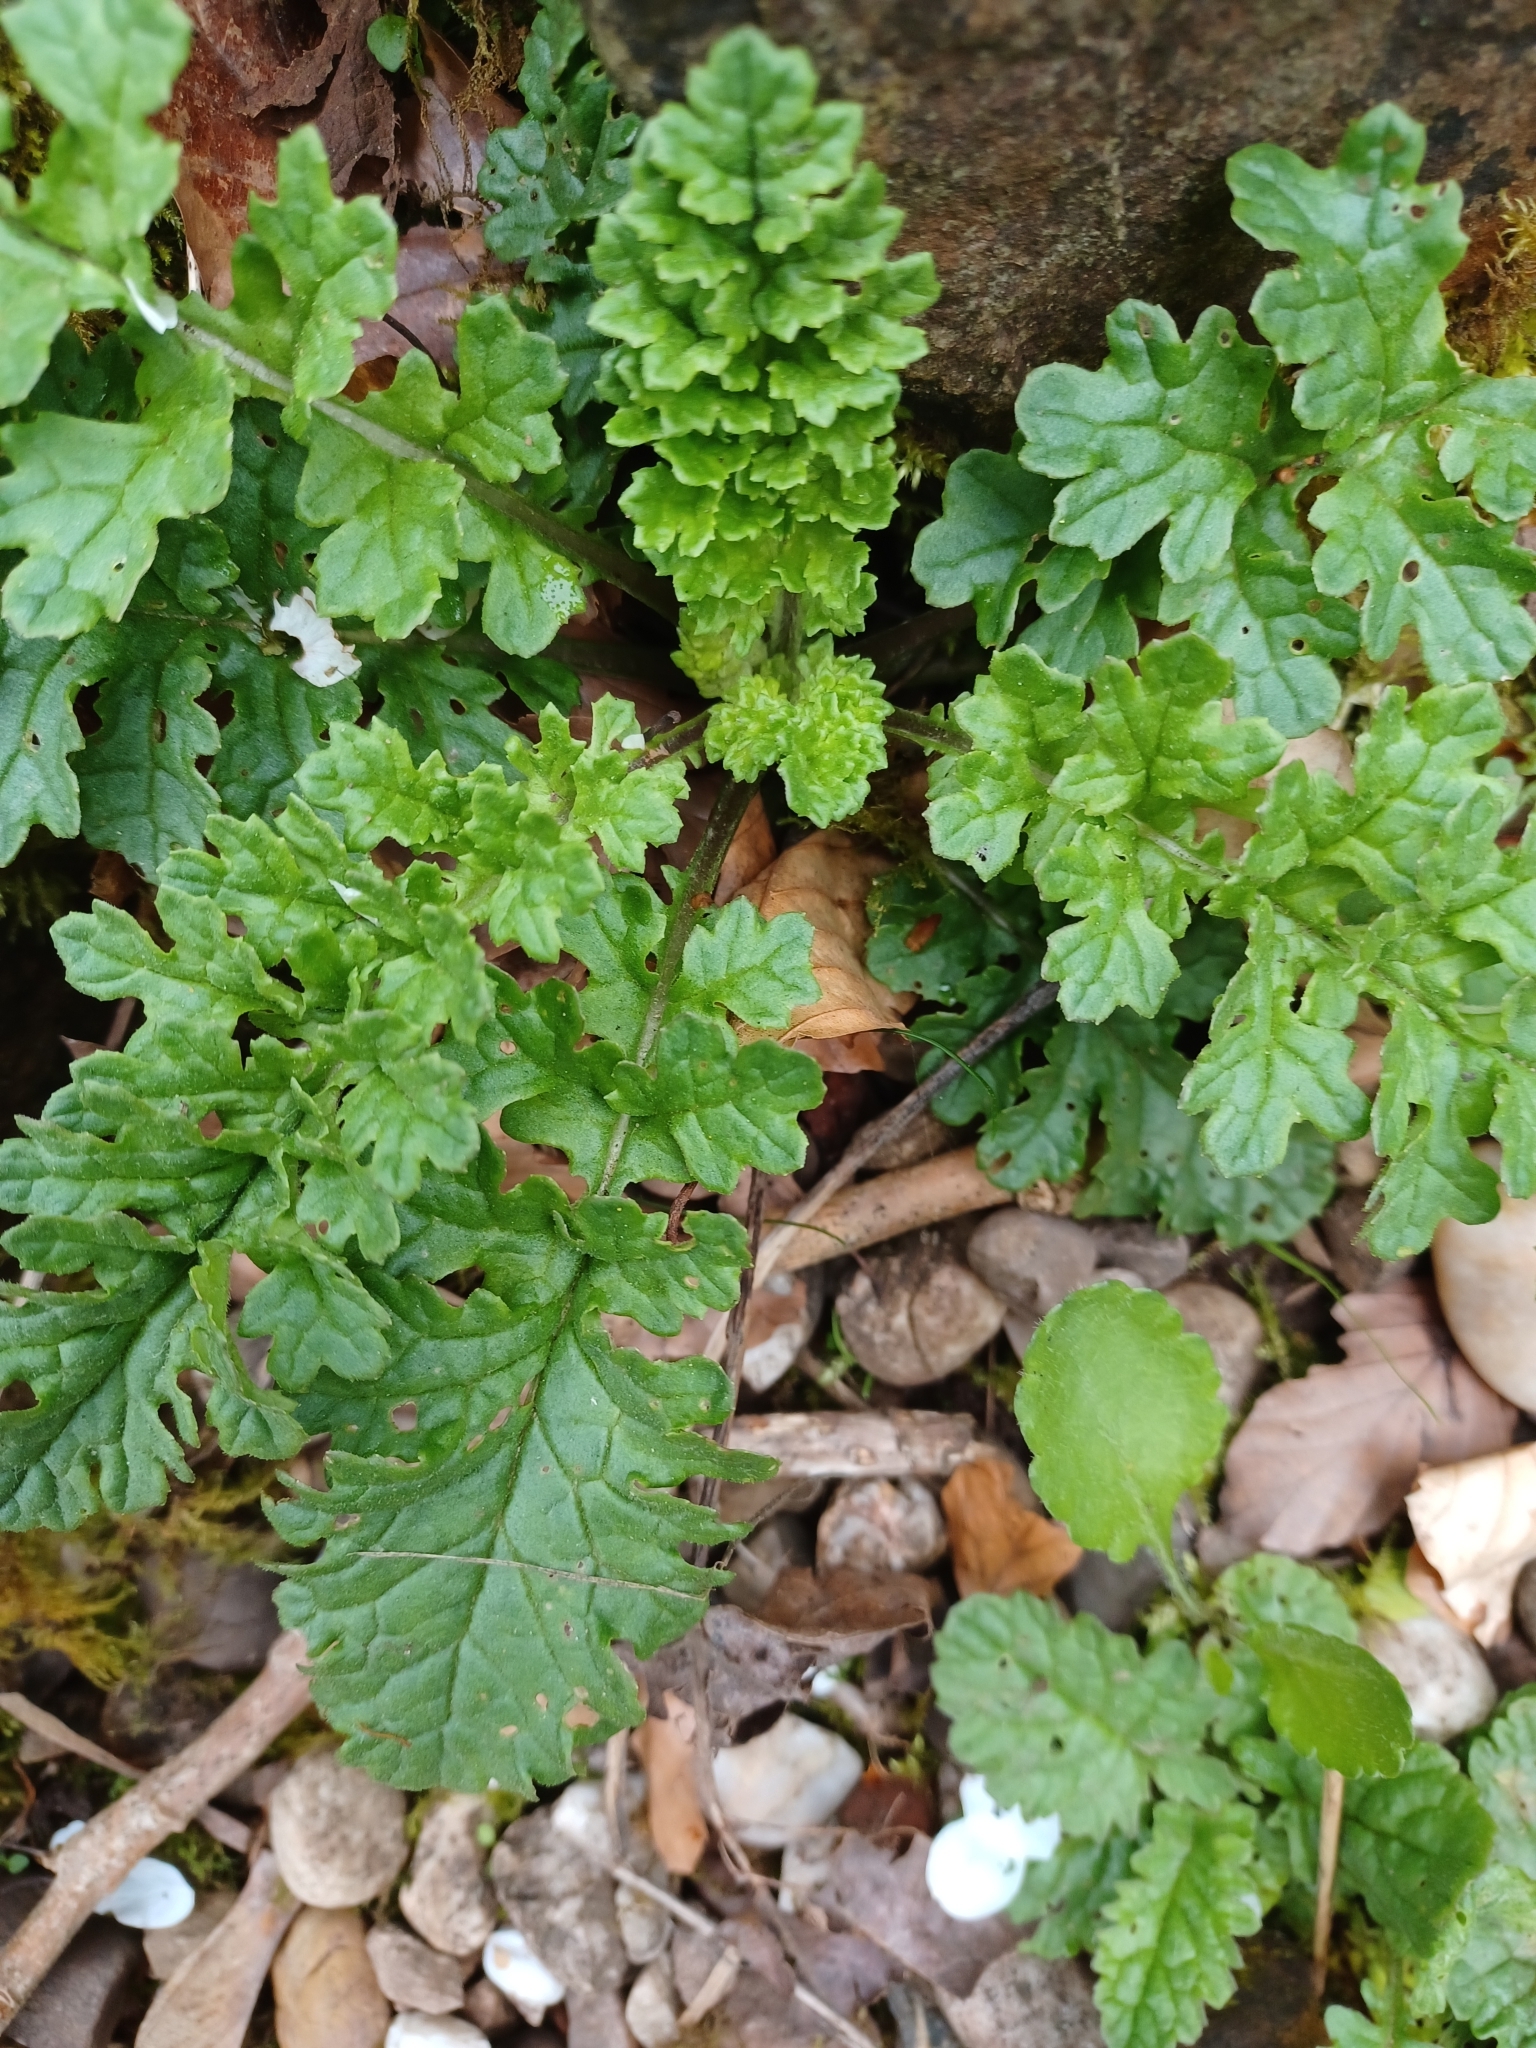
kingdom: Plantae
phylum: Tracheophyta
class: Magnoliopsida
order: Asterales
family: Asteraceae
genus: Jacobaea
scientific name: Jacobaea vulgaris
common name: Stinking willie
